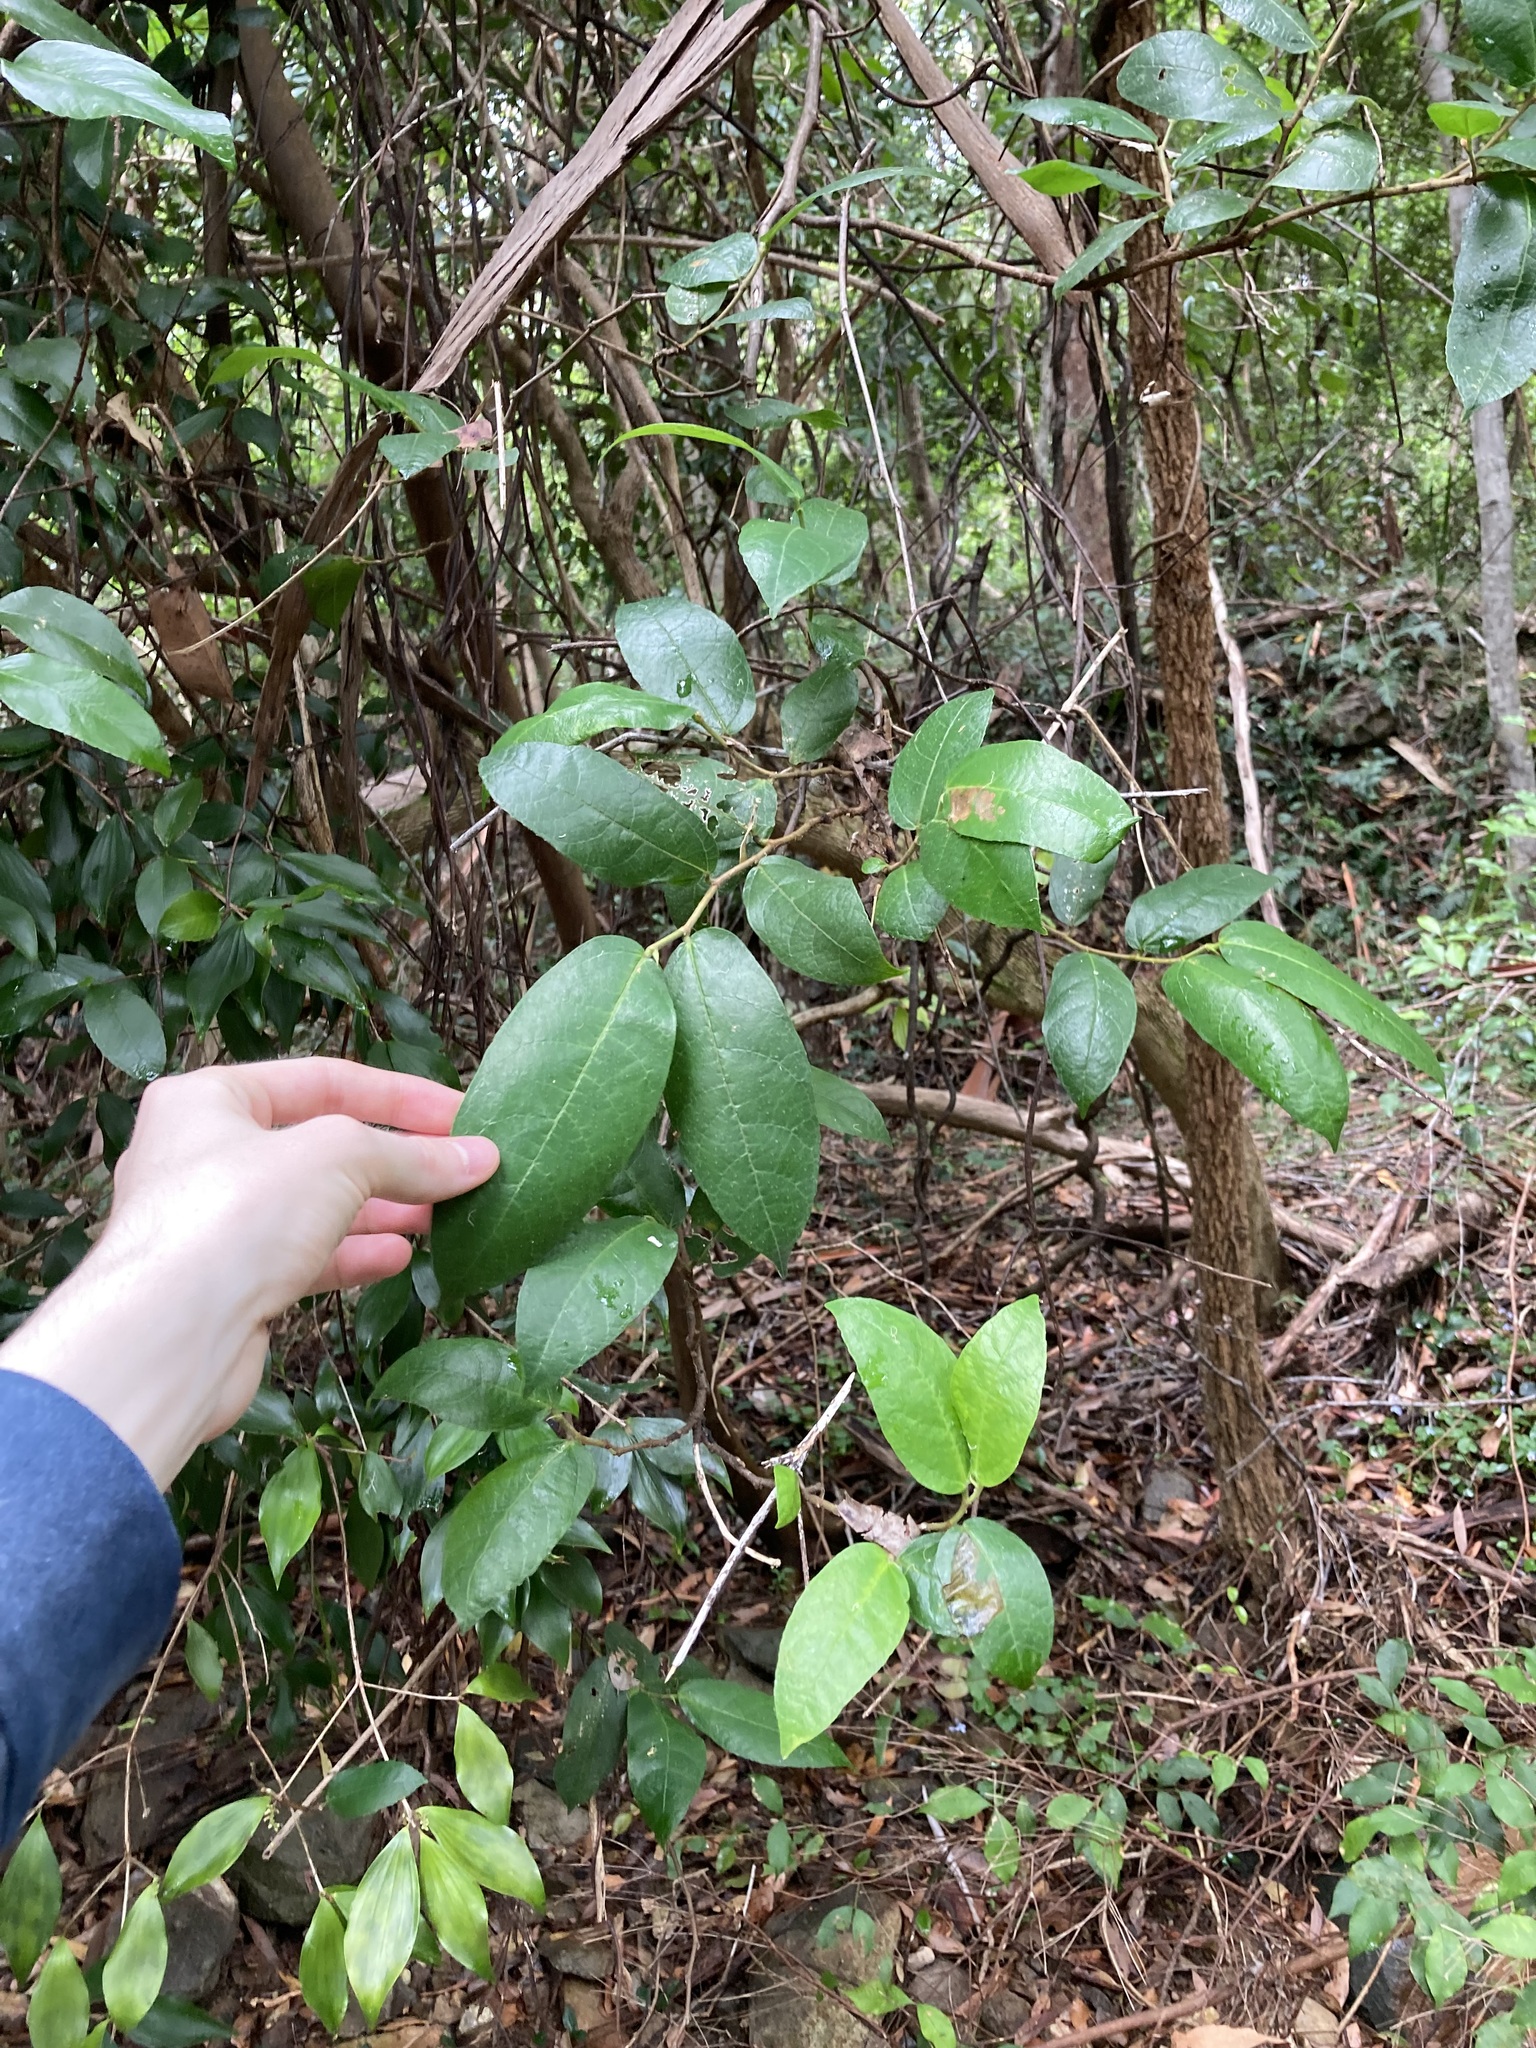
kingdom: Plantae
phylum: Tracheophyta
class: Magnoliopsida
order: Rosales
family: Moraceae
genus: Ficus
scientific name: Ficus coronata
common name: Creek sandpaper fig
